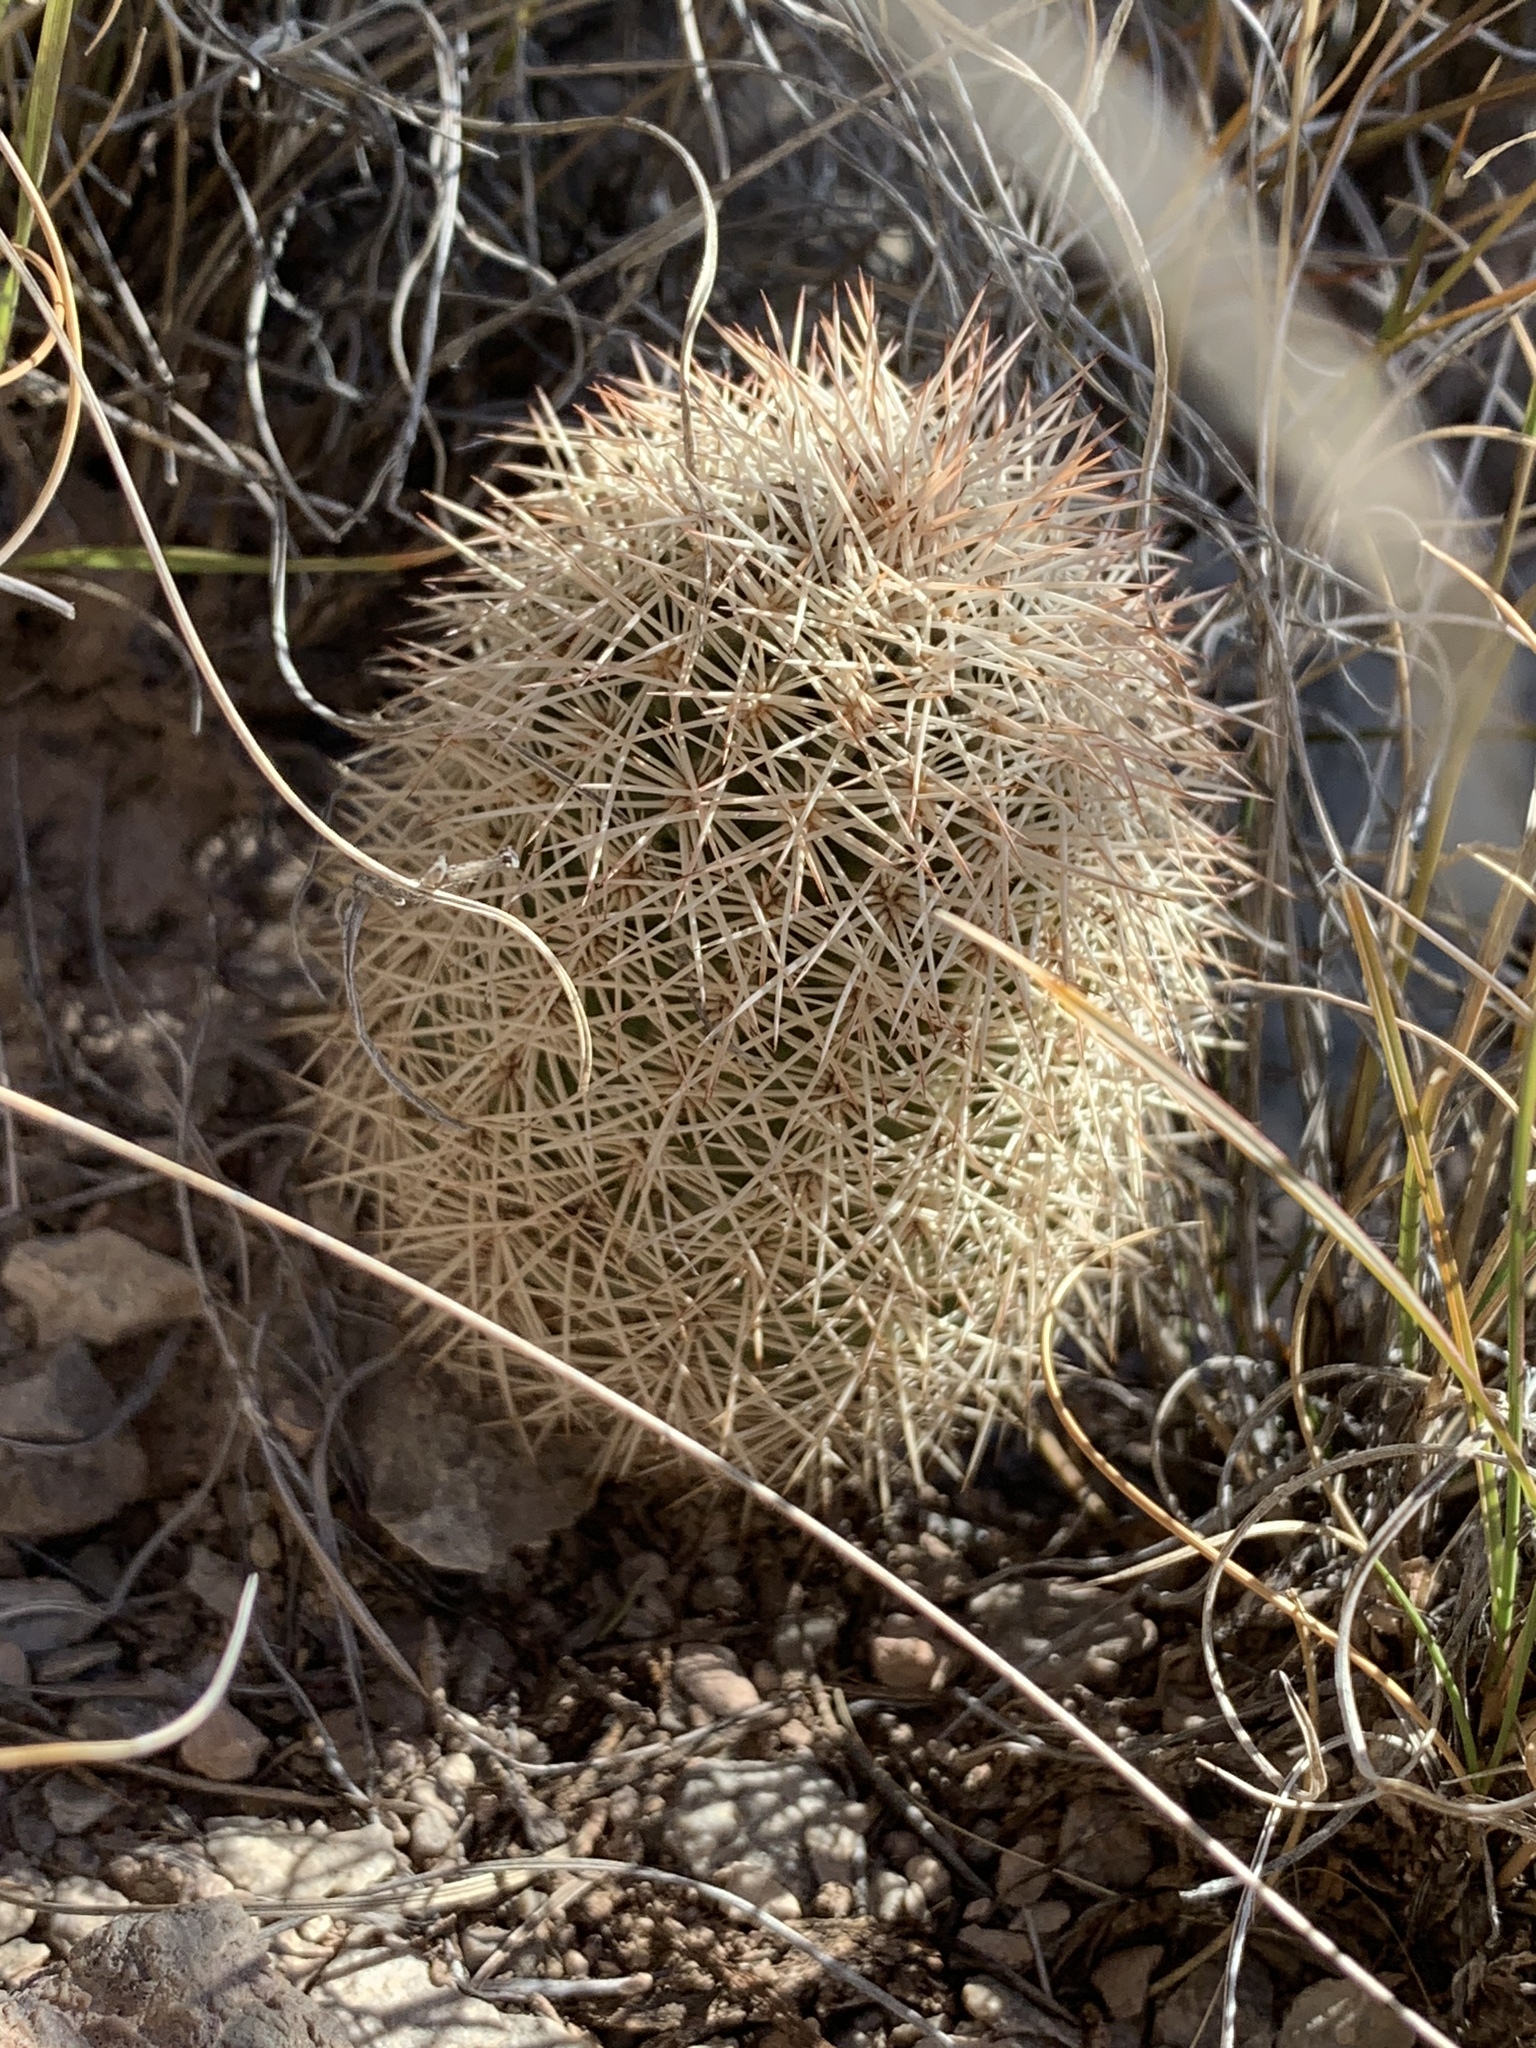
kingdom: Plantae
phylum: Tracheophyta
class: Magnoliopsida
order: Caryophyllales
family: Cactaceae
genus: Echinocereus
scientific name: Echinocereus dasyacanthus
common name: Spiny hedgehog cactus
